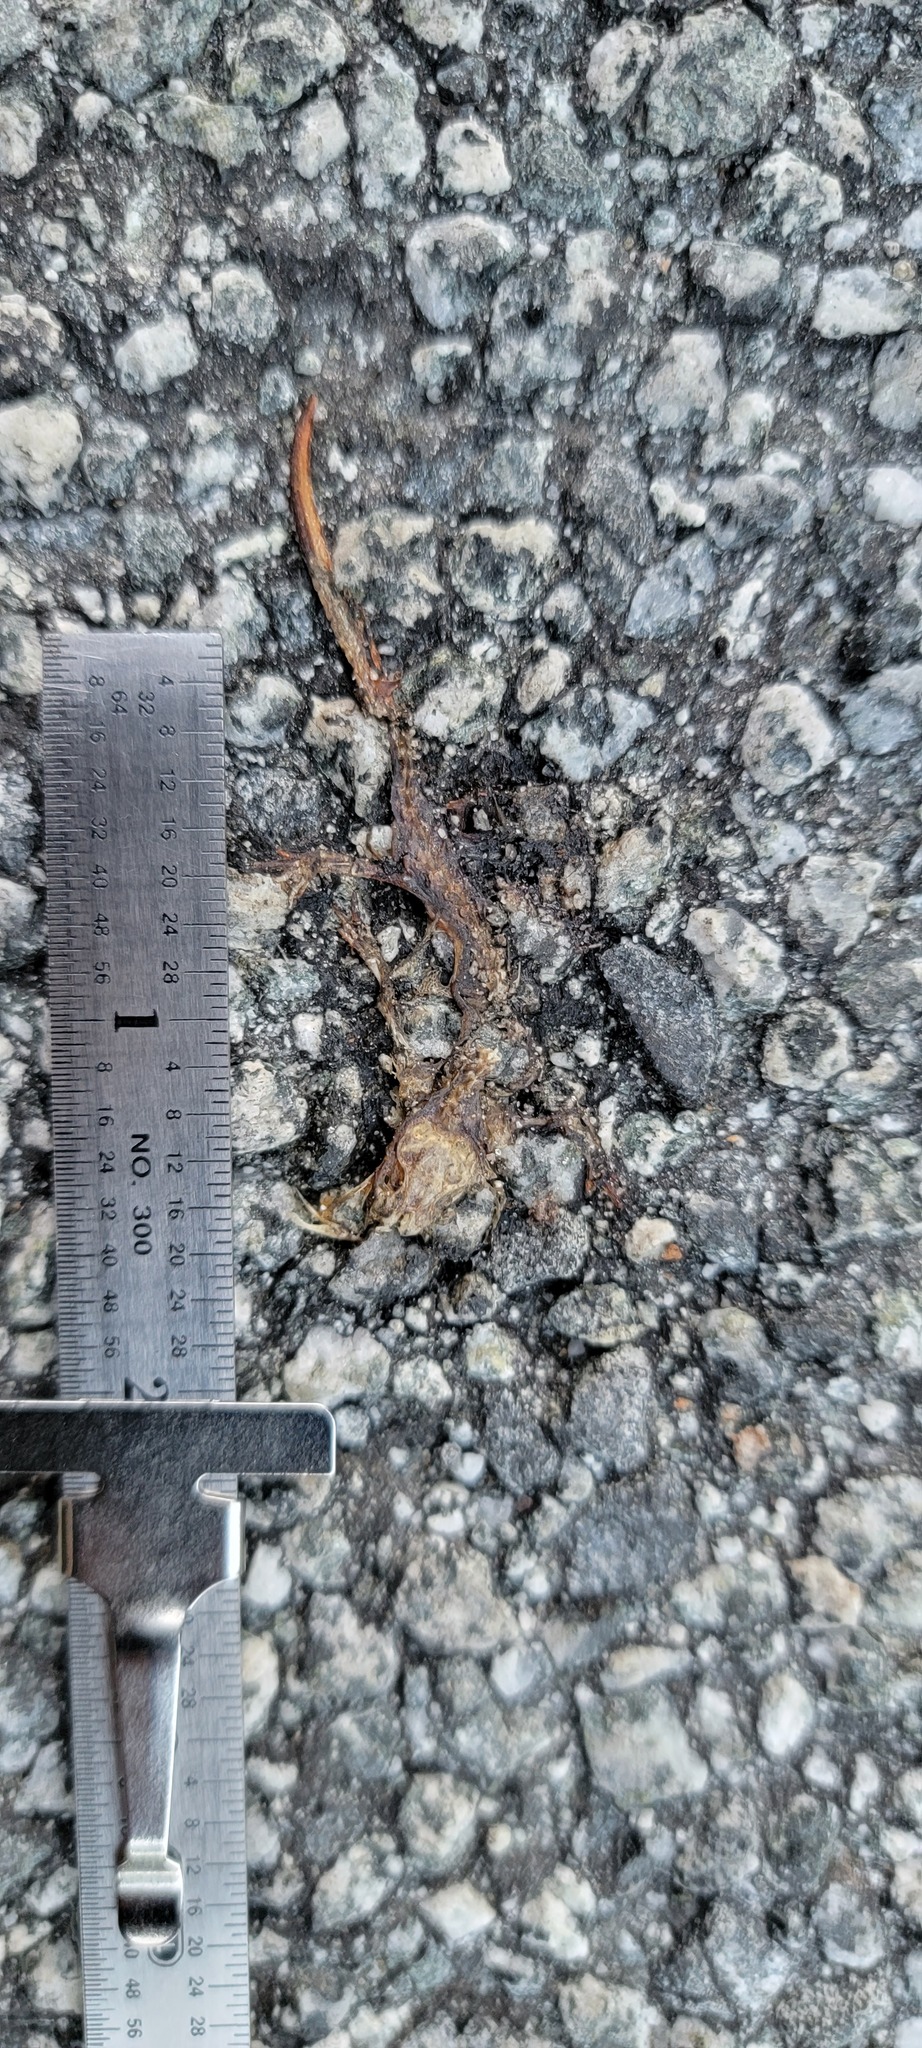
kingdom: Animalia
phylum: Chordata
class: Amphibia
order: Caudata
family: Salamandridae
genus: Taricha
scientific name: Taricha
